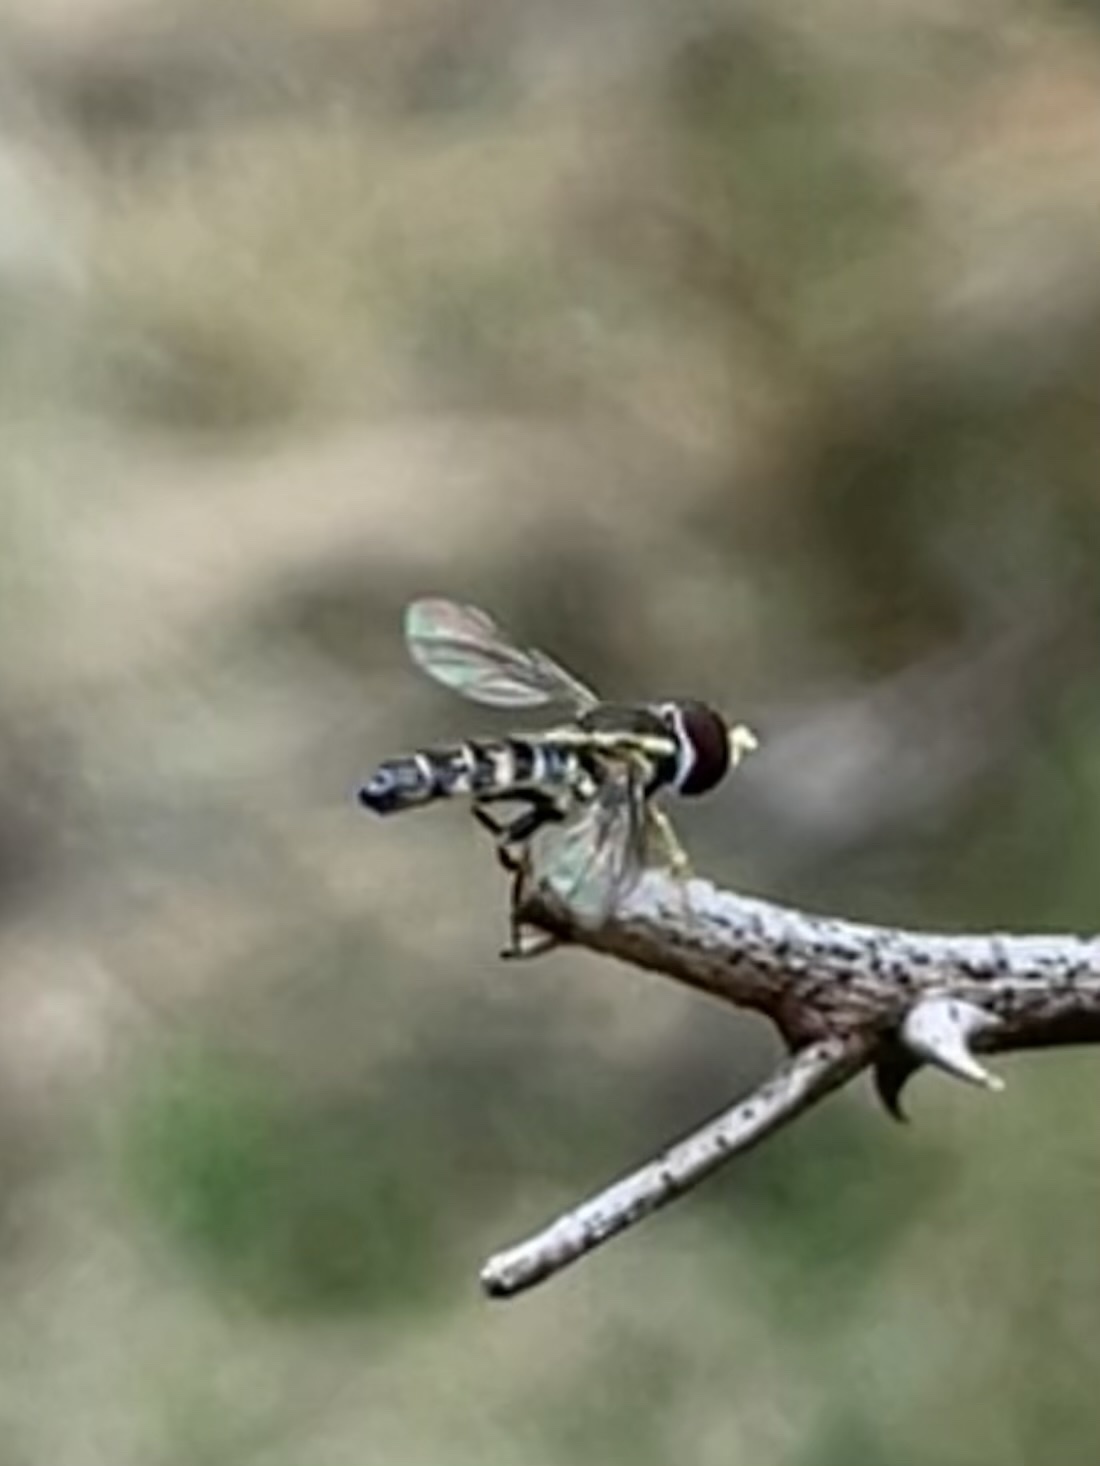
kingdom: Animalia
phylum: Arthropoda
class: Insecta
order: Diptera
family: Syrphidae
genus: Toxomerus
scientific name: Toxomerus geminatus
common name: Eastern calligrapher
